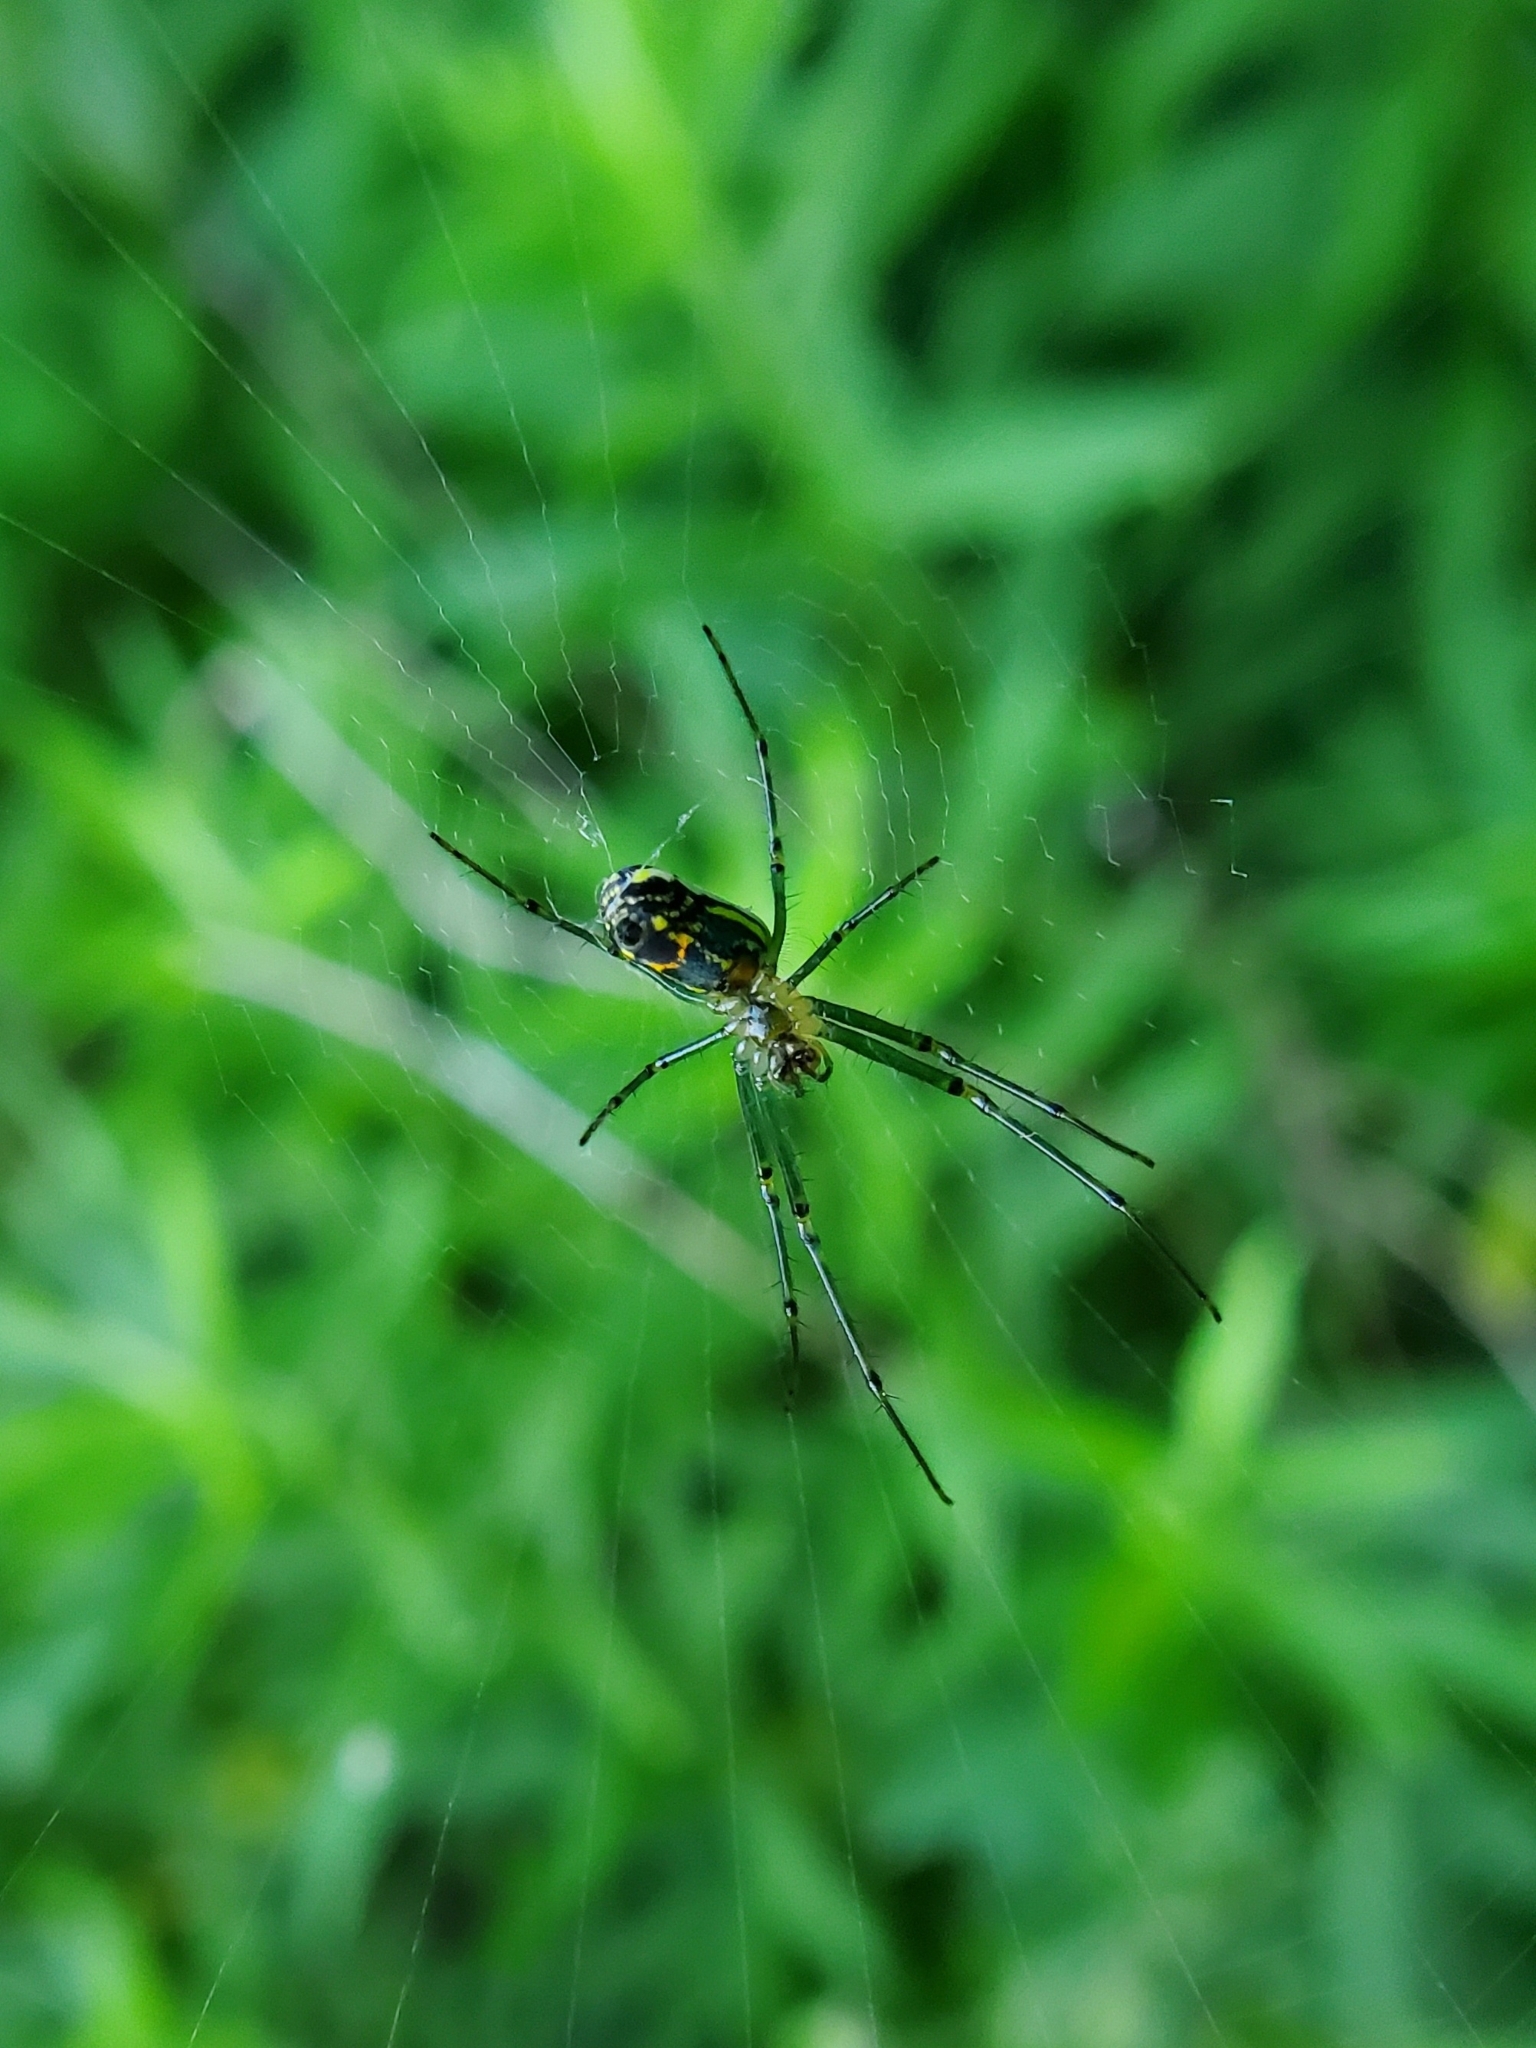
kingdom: Animalia
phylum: Arthropoda
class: Arachnida
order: Araneae
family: Tetragnathidae
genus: Leucauge
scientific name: Leucauge venusta
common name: Longjawed orb weavers
